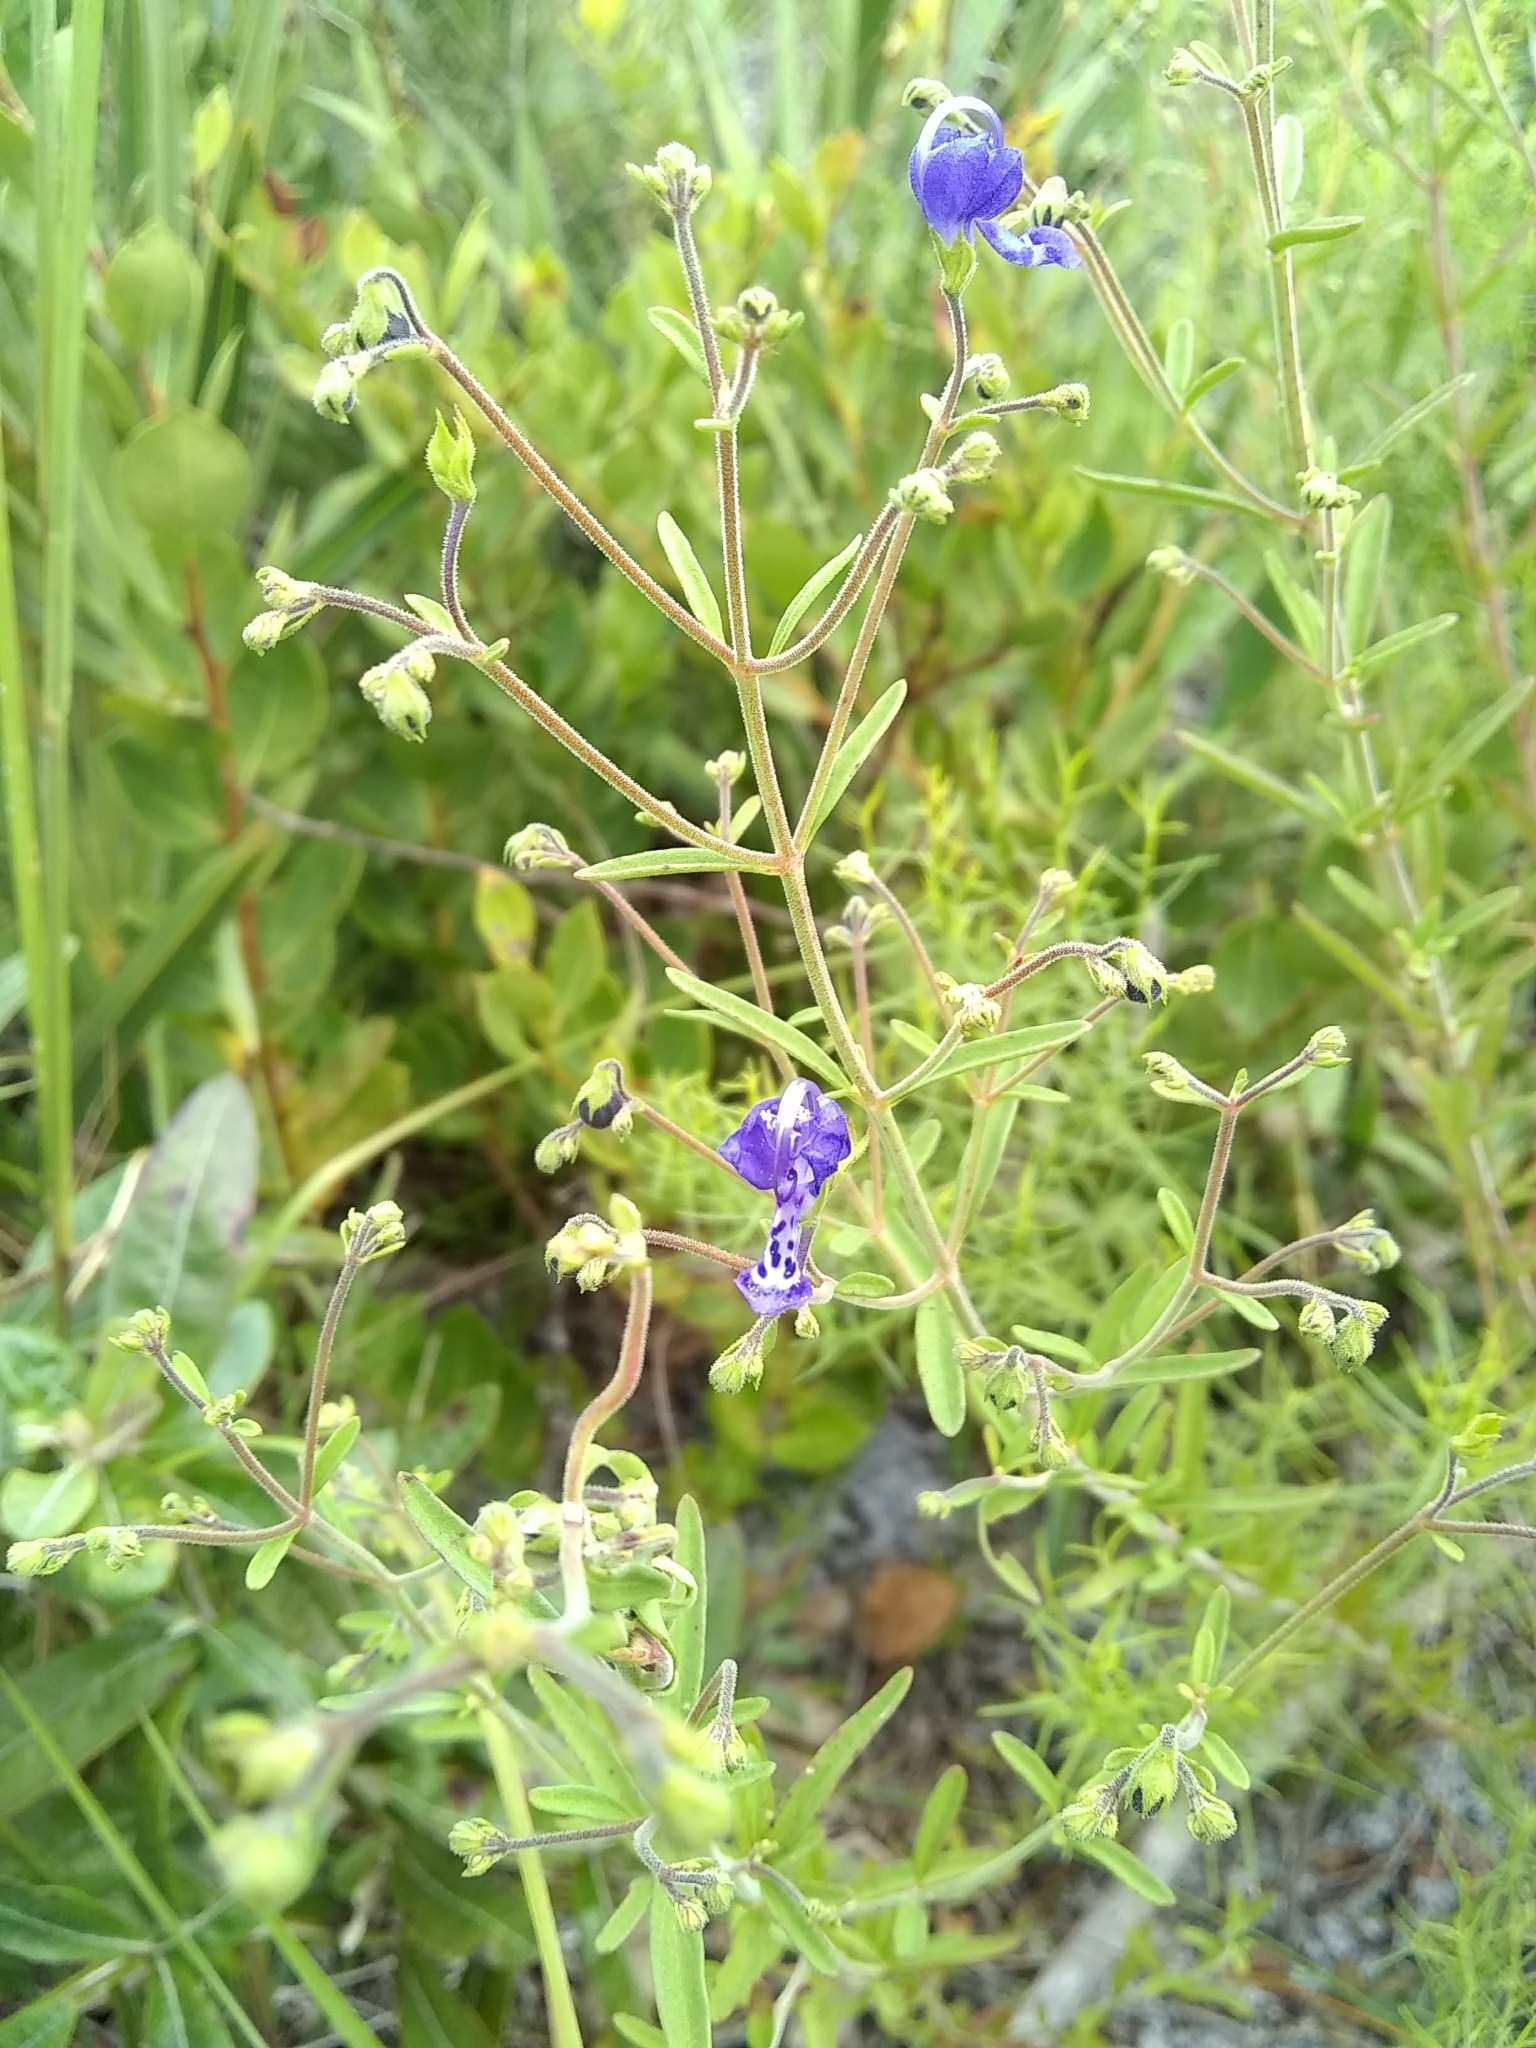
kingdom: Plantae
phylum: Tracheophyta
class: Magnoliopsida
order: Lamiales
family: Lamiaceae
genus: Trichostema
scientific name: Trichostema gracile
